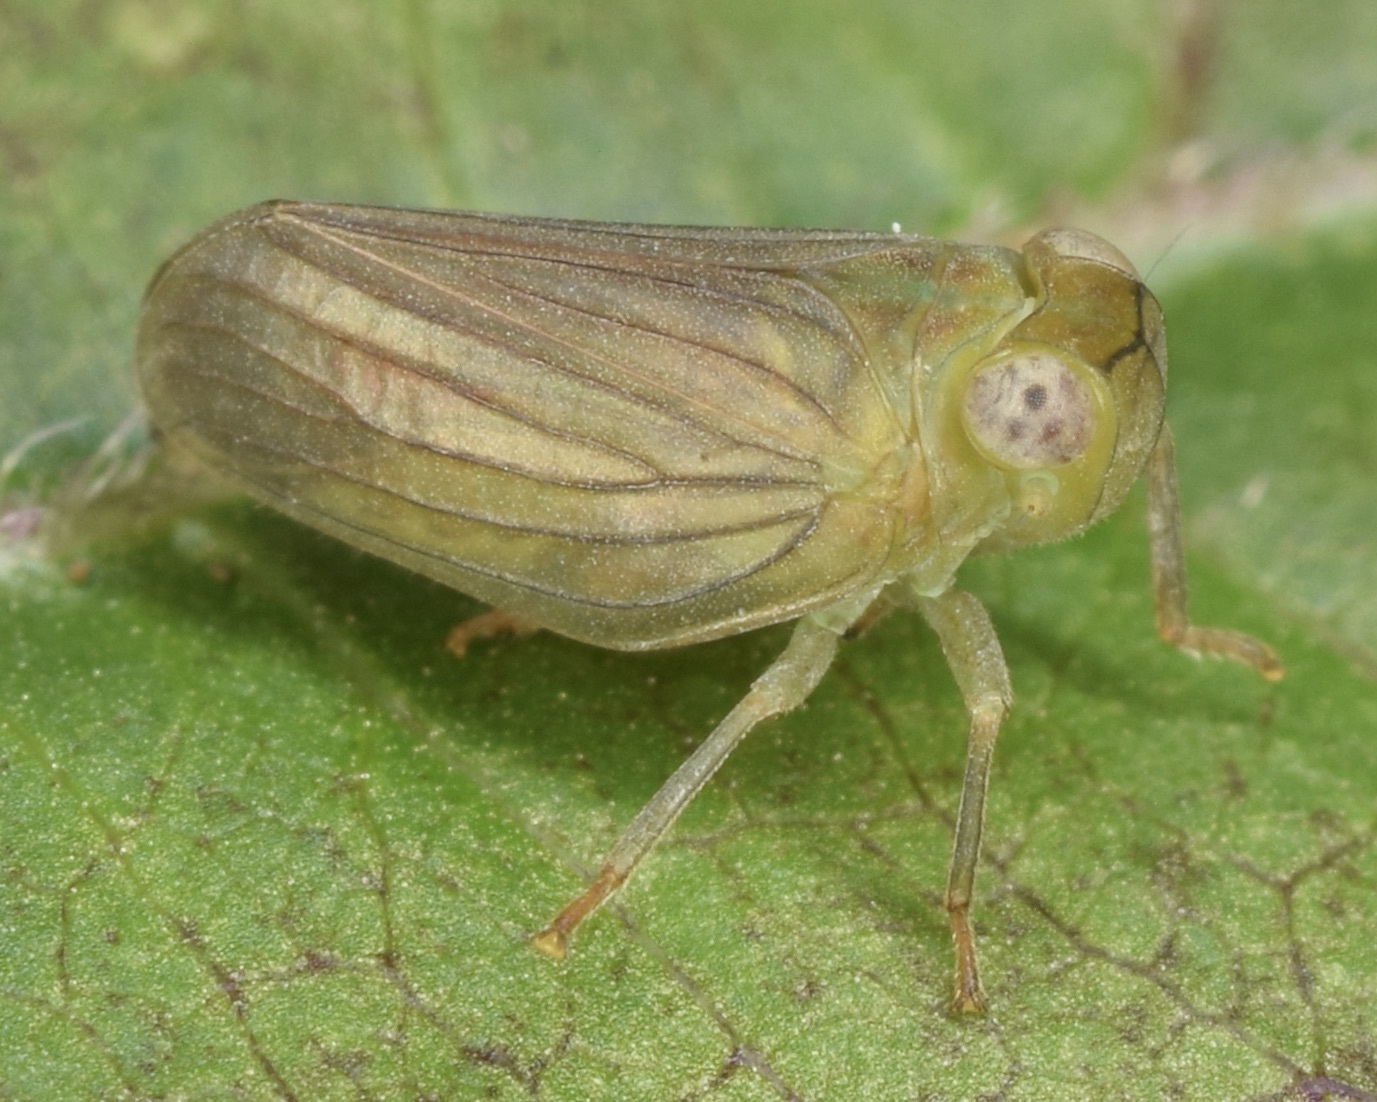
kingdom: Animalia
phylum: Arthropoda
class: Insecta
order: Hemiptera
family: Issidae
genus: Aplos
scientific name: Aplos simplex
